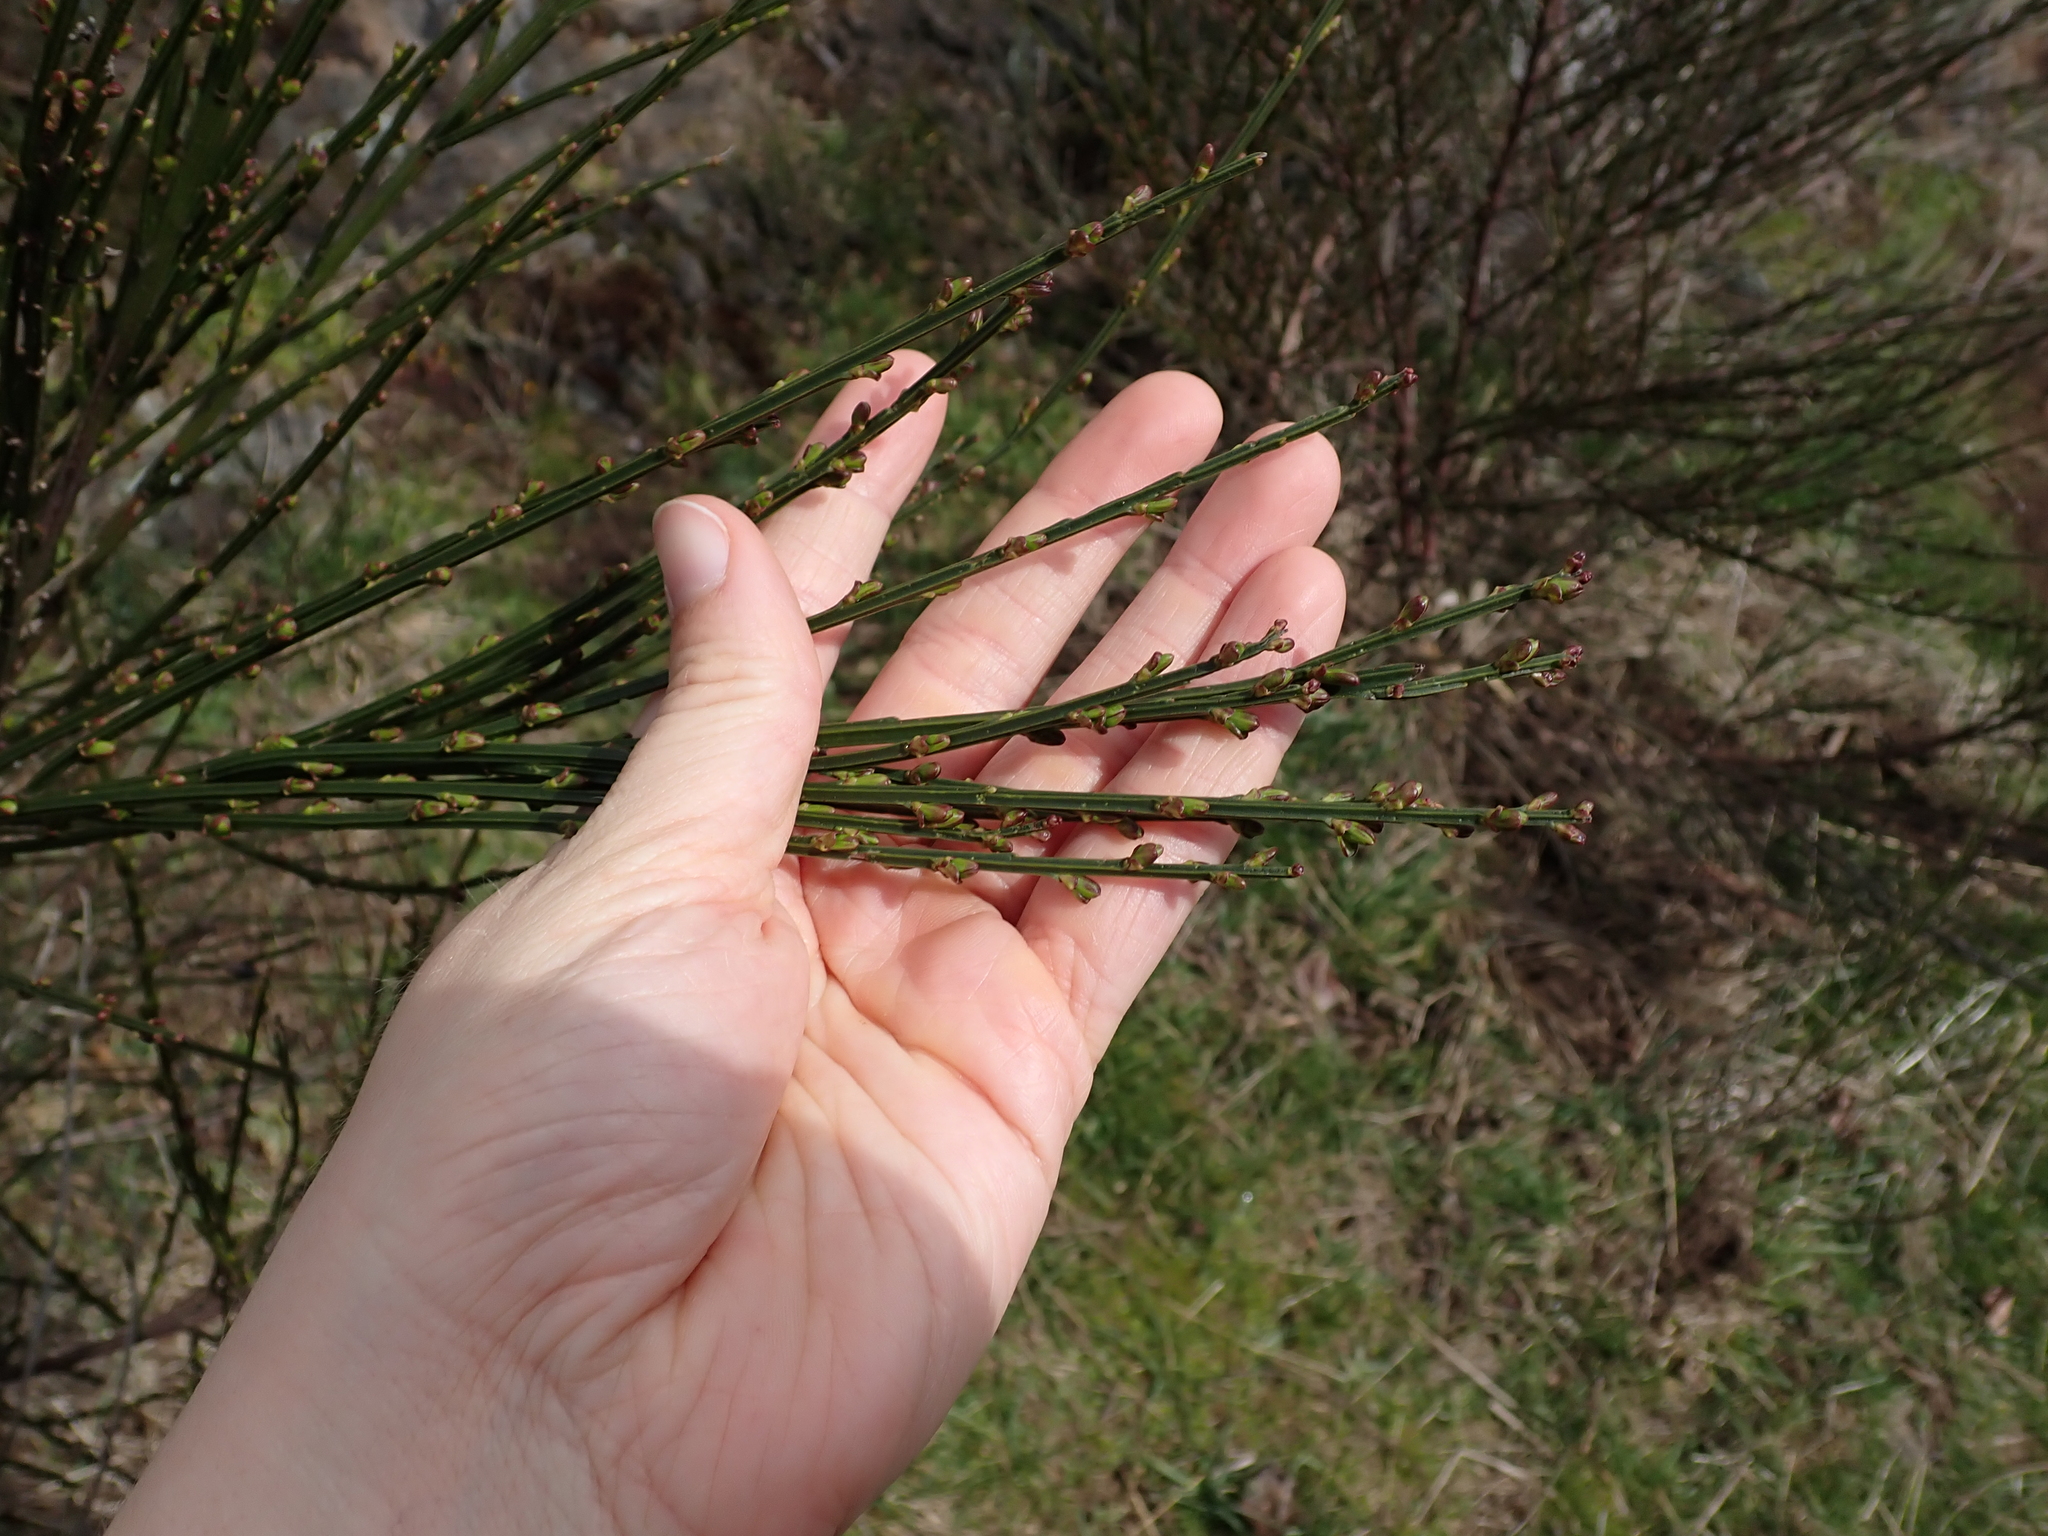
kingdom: Plantae
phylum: Tracheophyta
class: Magnoliopsida
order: Fabales
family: Fabaceae
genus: Cytisus
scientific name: Cytisus scoparius
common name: Scotch broom
